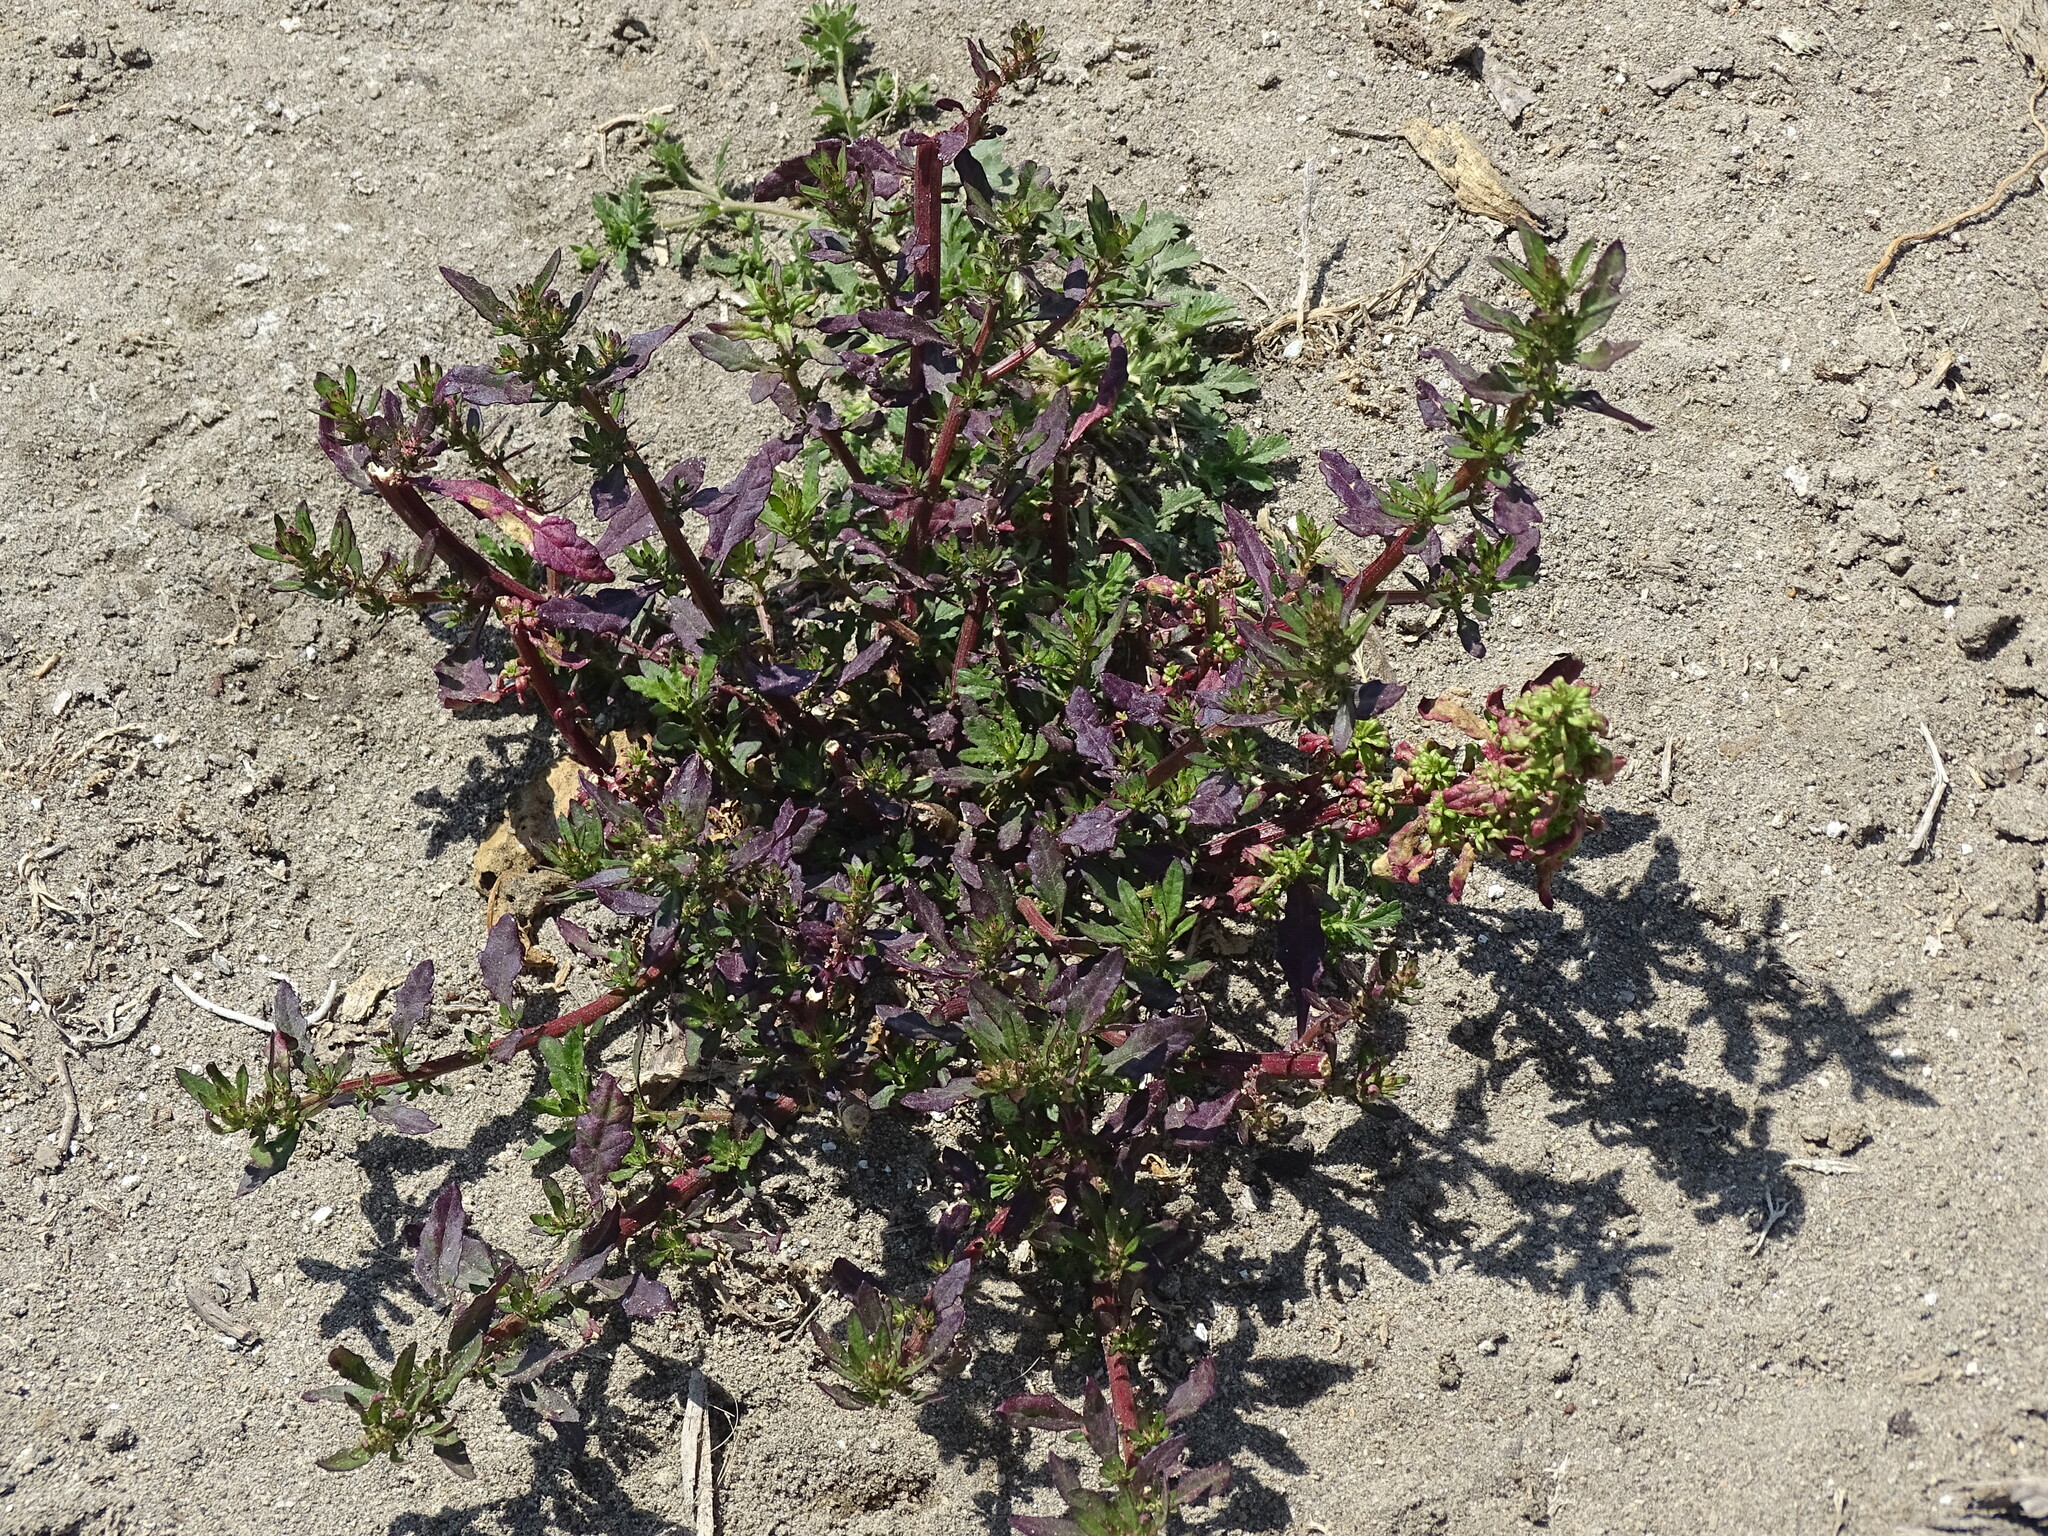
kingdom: Plantae
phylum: Tracheophyta
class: Magnoliopsida
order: Caryophyllales
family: Amaranthaceae
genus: Dysphania
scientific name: Dysphania ambrosioides
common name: Wormseed
